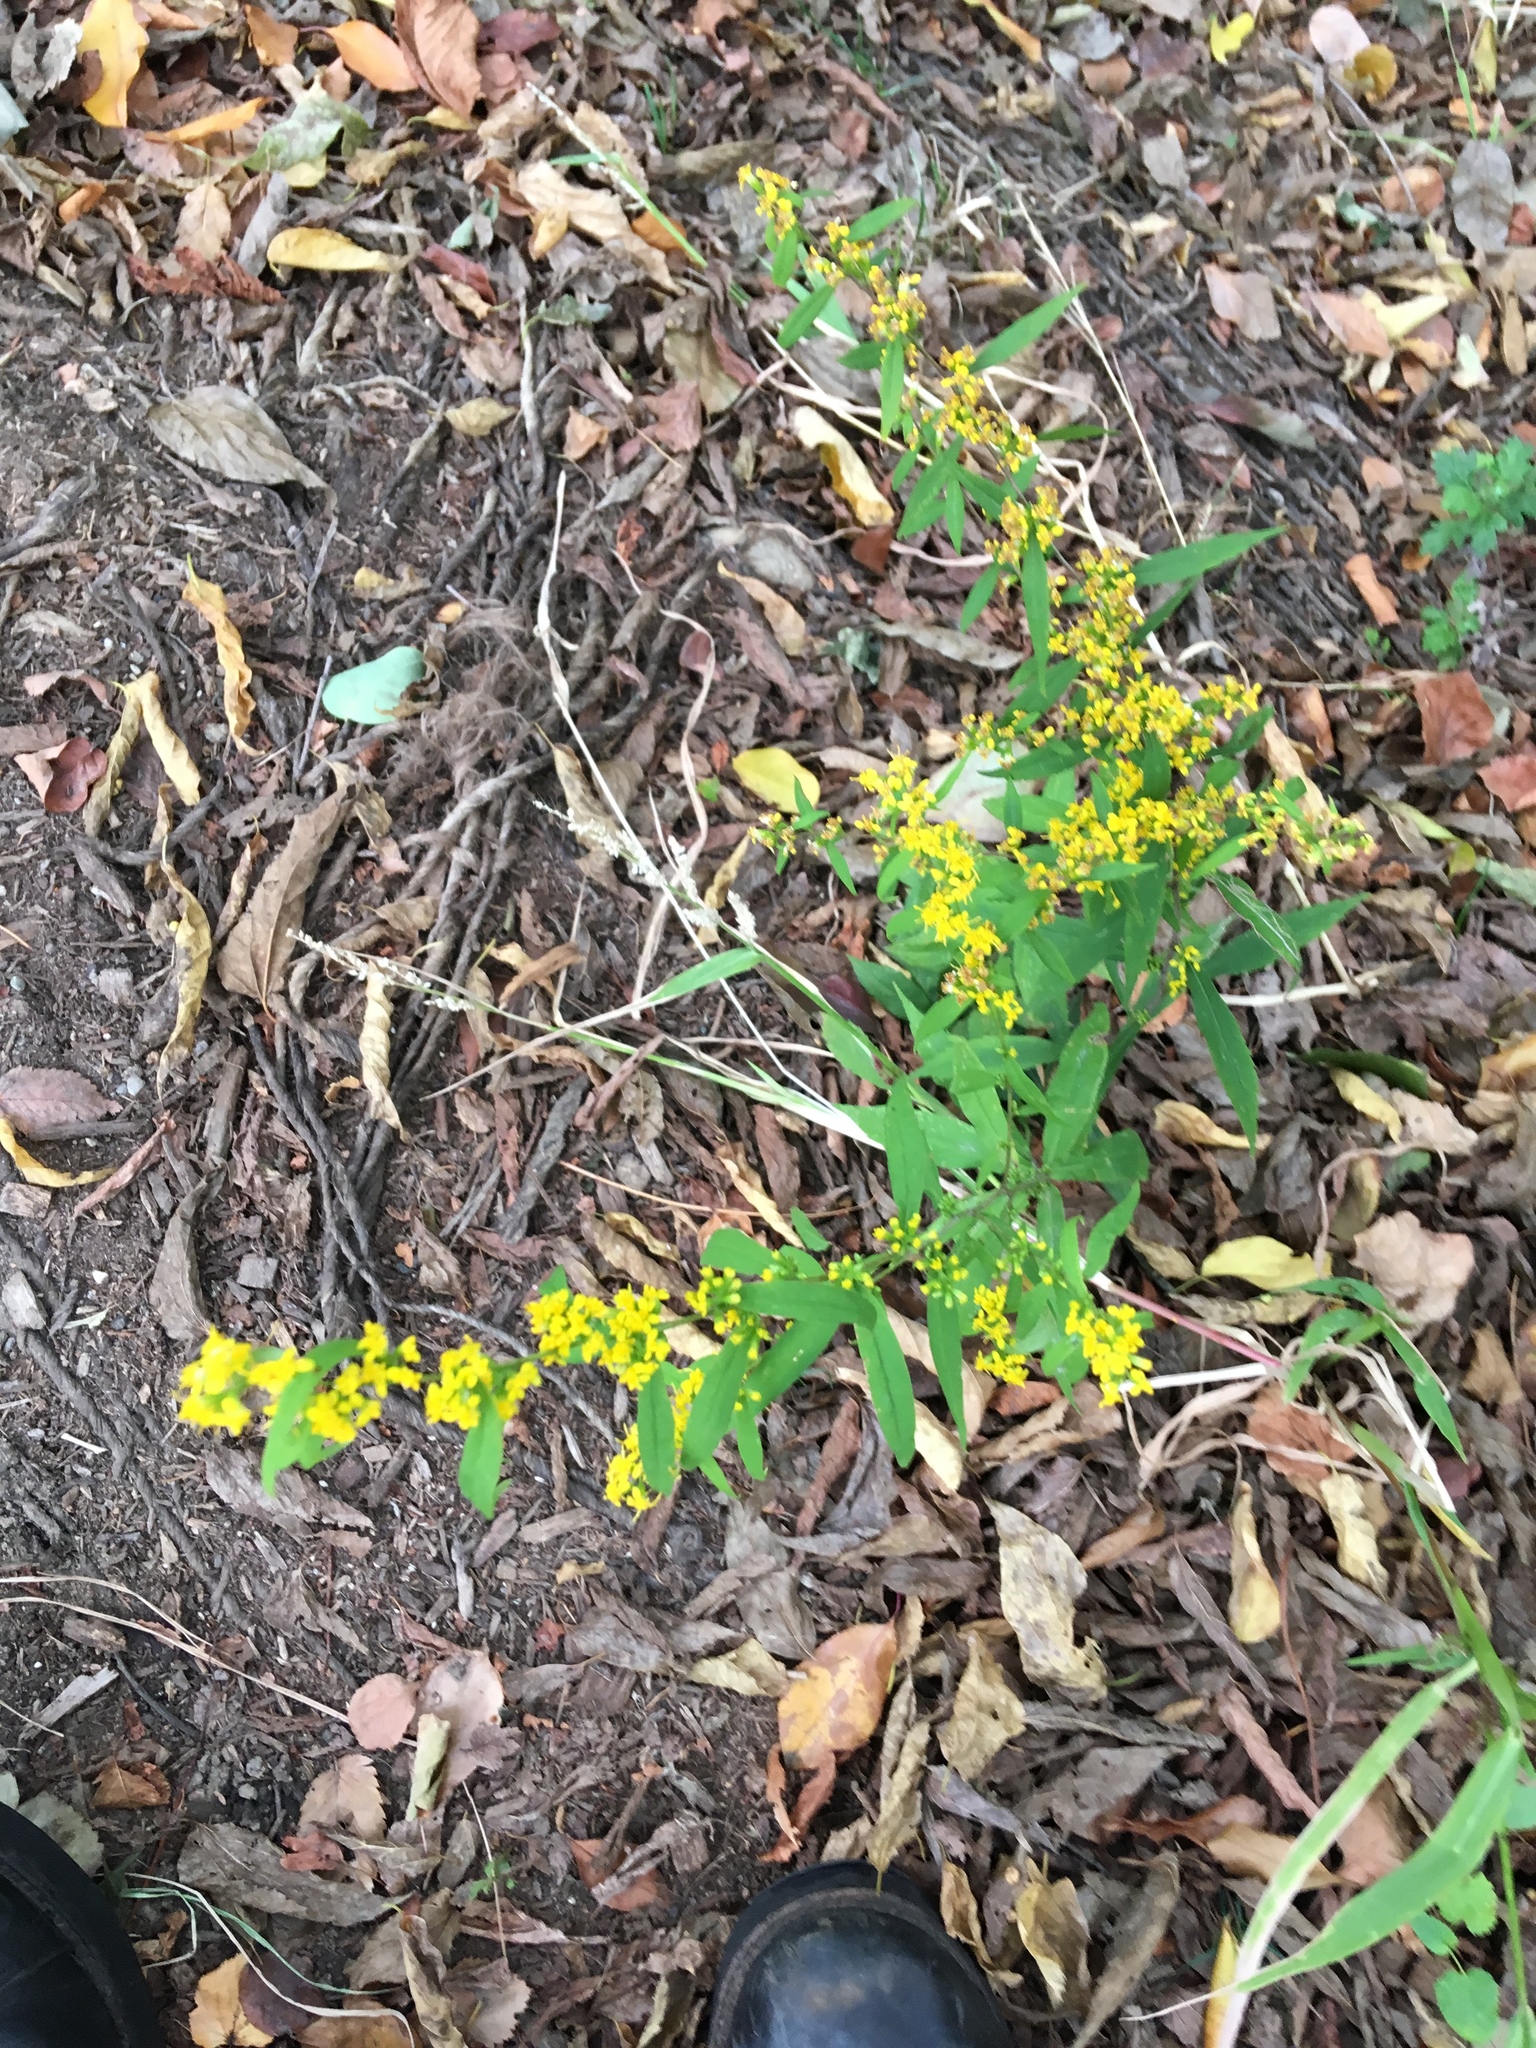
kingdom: Plantae
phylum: Tracheophyta
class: Magnoliopsida
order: Asterales
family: Asteraceae
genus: Solidago
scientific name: Solidago caesia
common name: Woodland goldenrod
